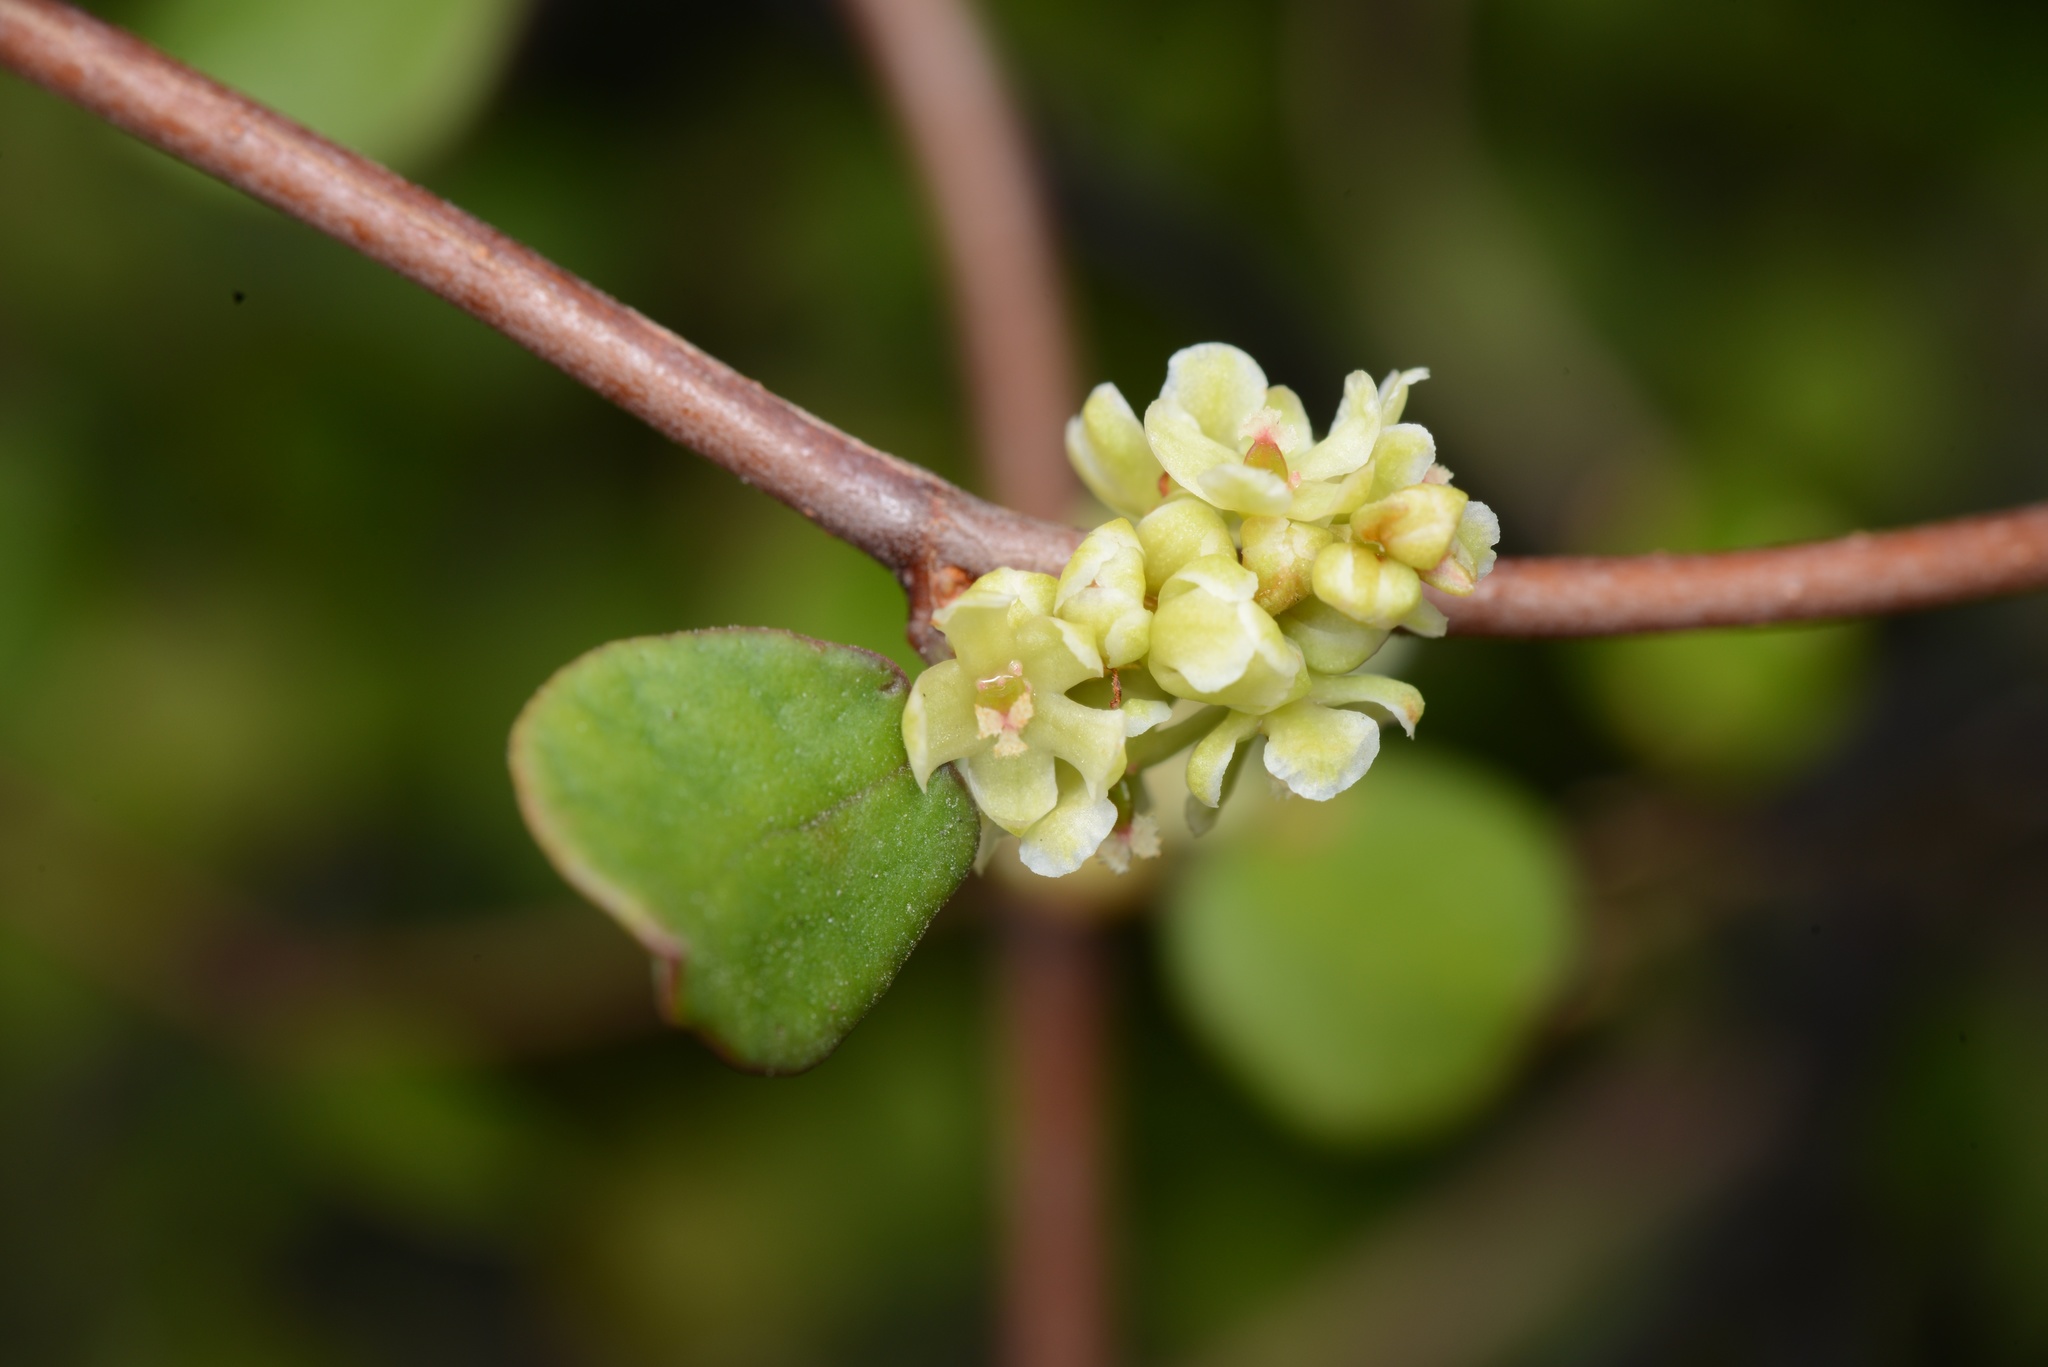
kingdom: Plantae
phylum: Tracheophyta
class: Magnoliopsida
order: Caryophyllales
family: Polygonaceae
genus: Muehlenbeckia
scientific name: Muehlenbeckia complexa
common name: Wireplant
